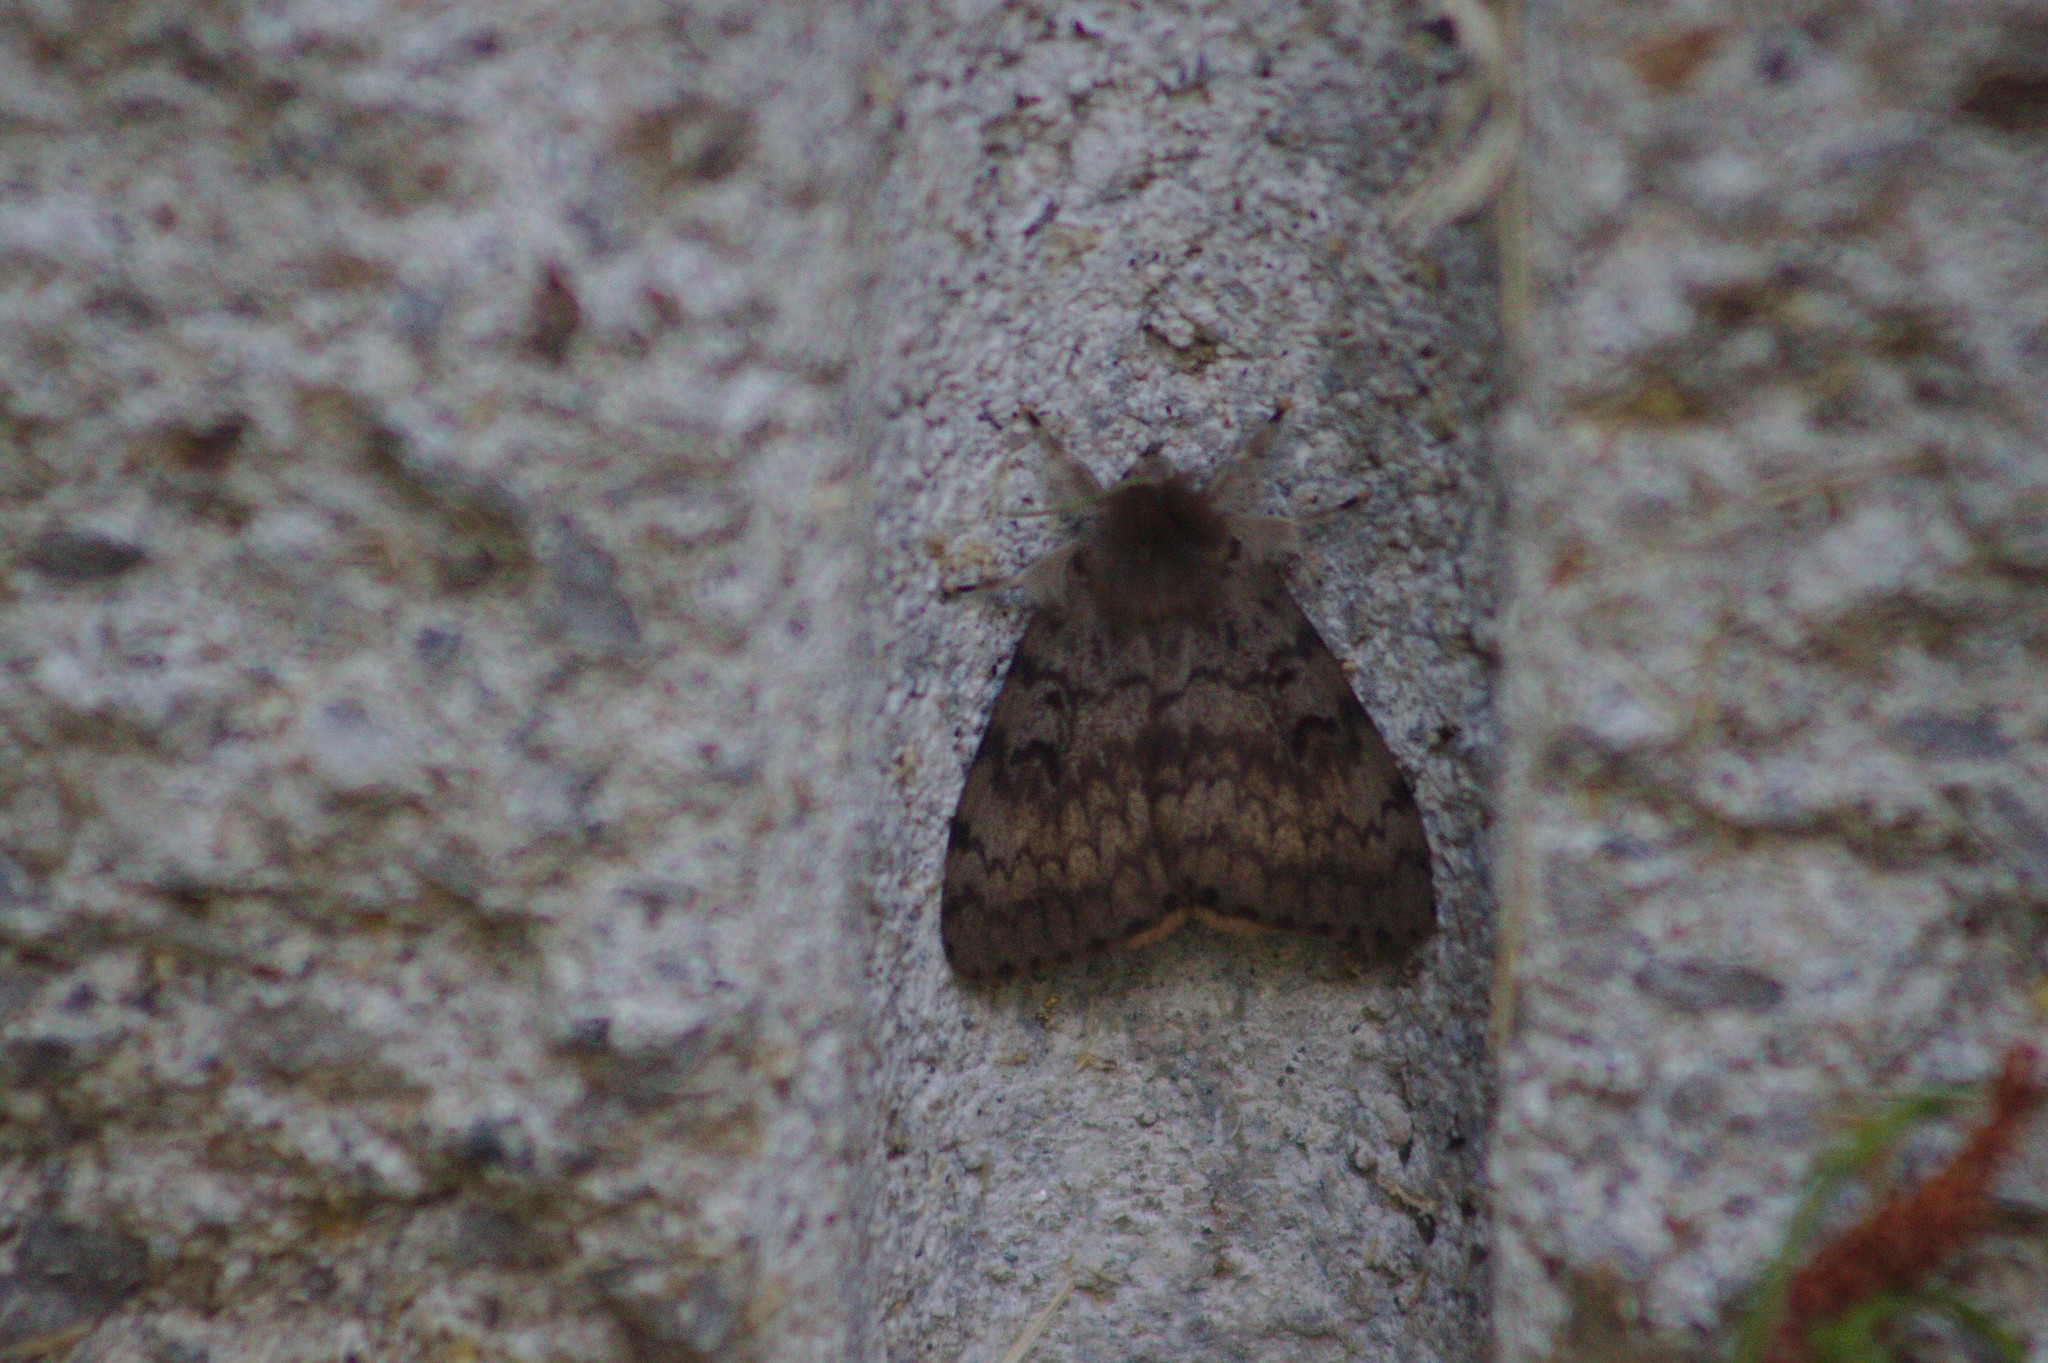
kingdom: Animalia
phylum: Arthropoda
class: Insecta
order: Lepidoptera
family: Erebidae
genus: Lymantria
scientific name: Lymantria dispar
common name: Gypsy moth
